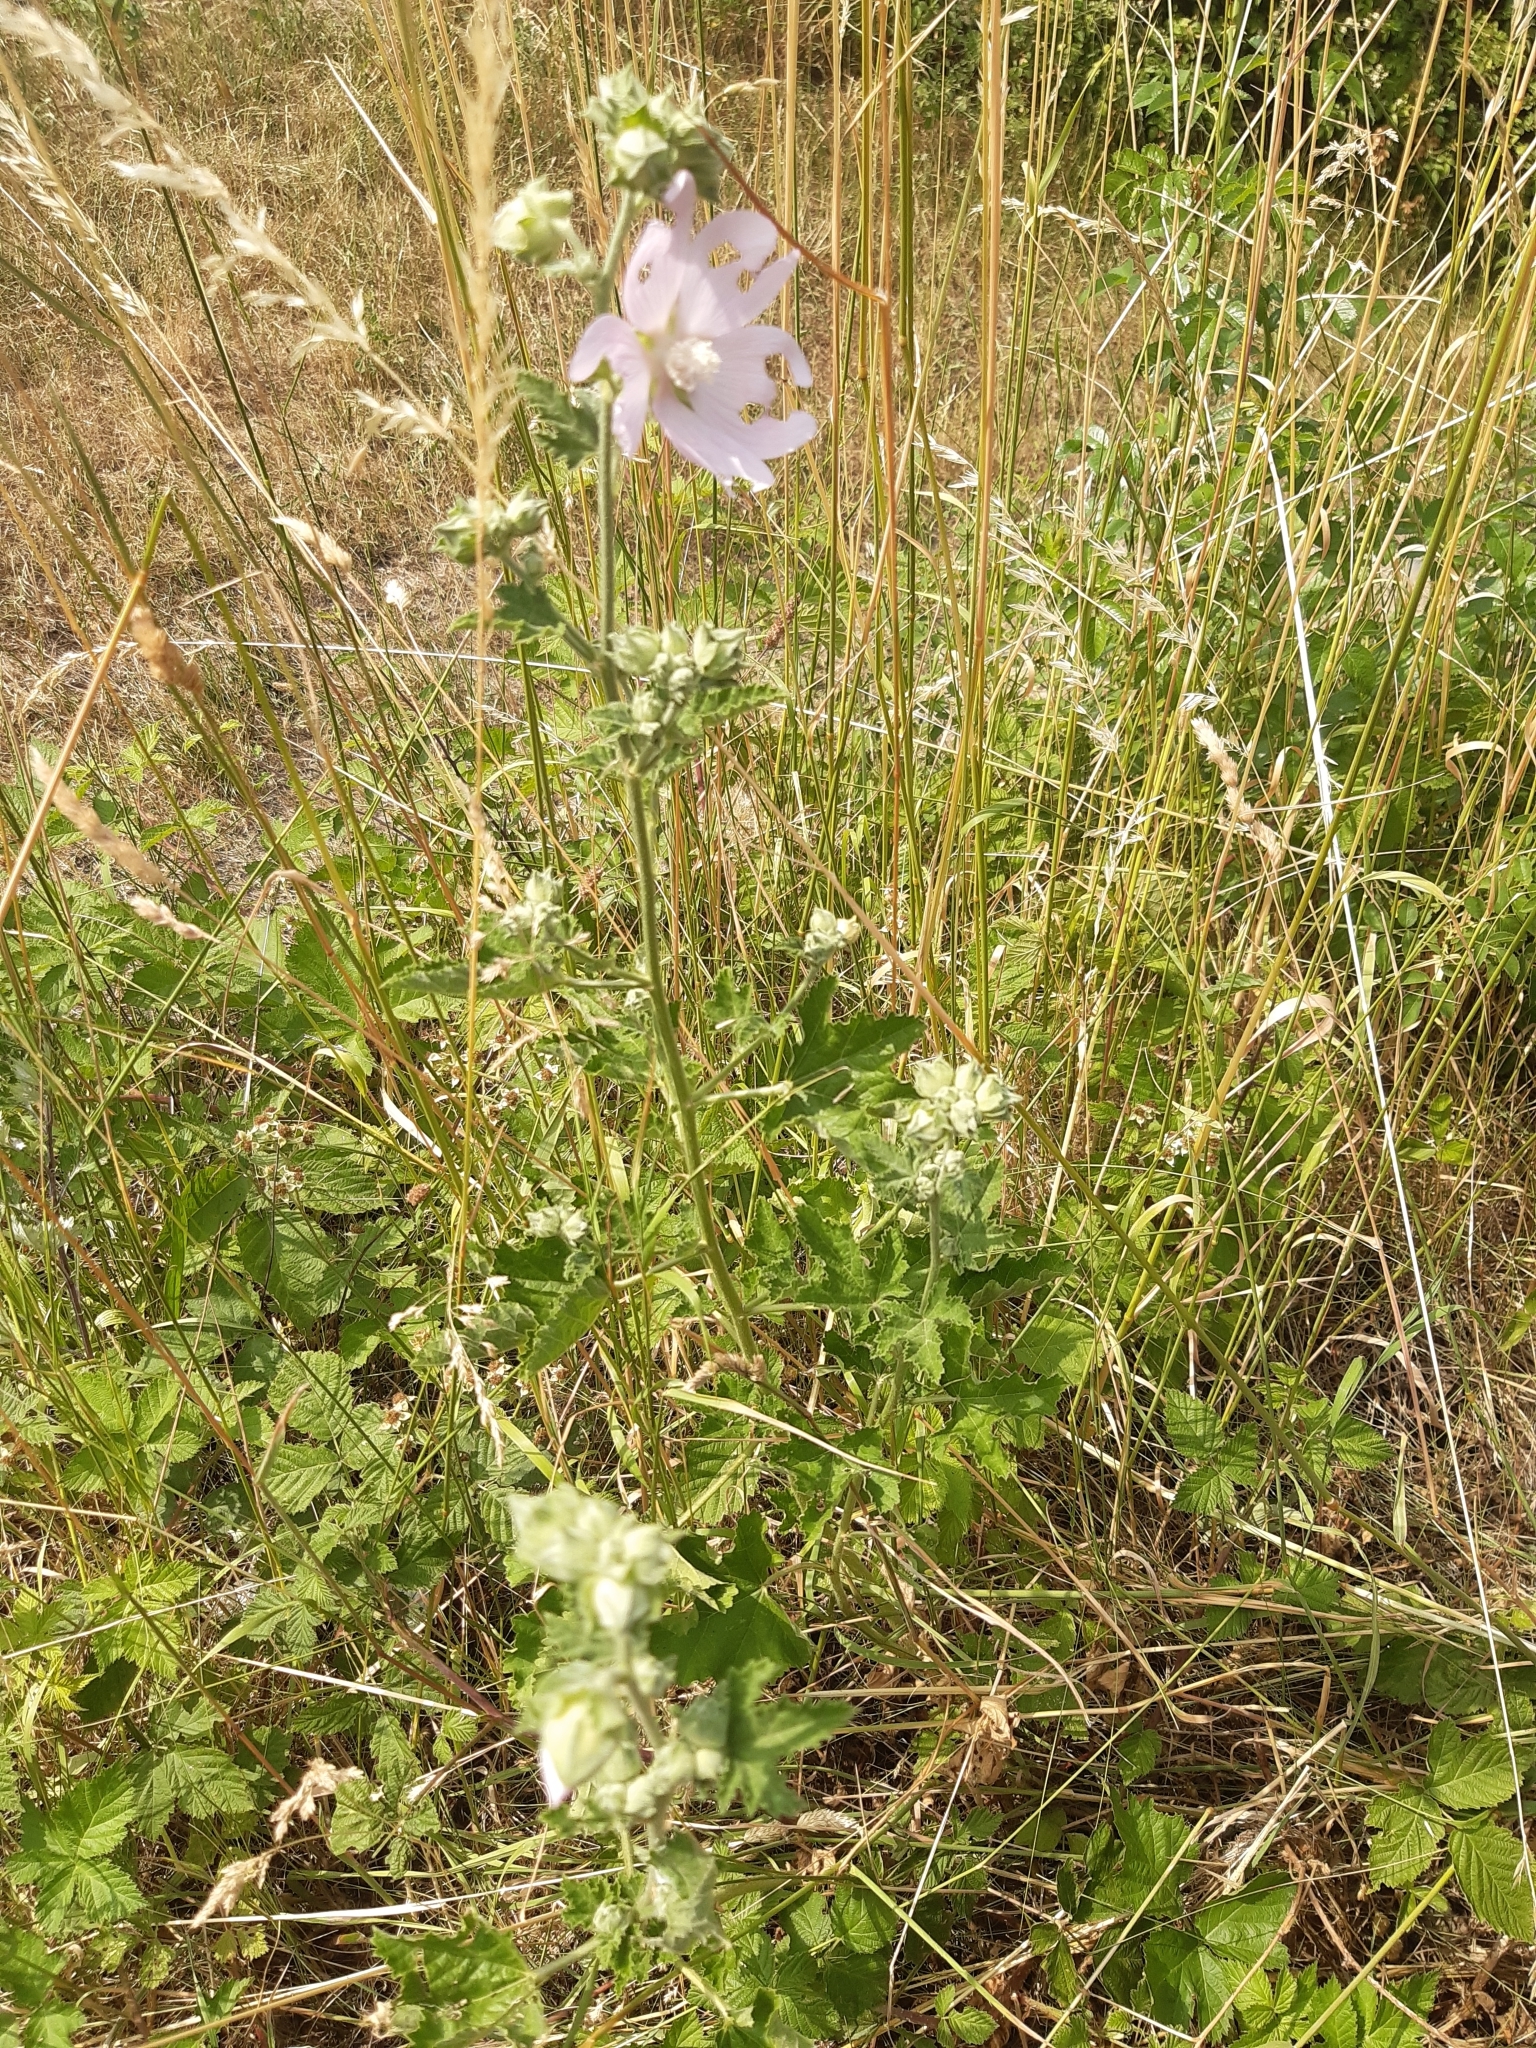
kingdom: Plantae
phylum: Tracheophyta
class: Magnoliopsida
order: Malvales
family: Malvaceae
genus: Malva
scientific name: Malva thuringiaca
